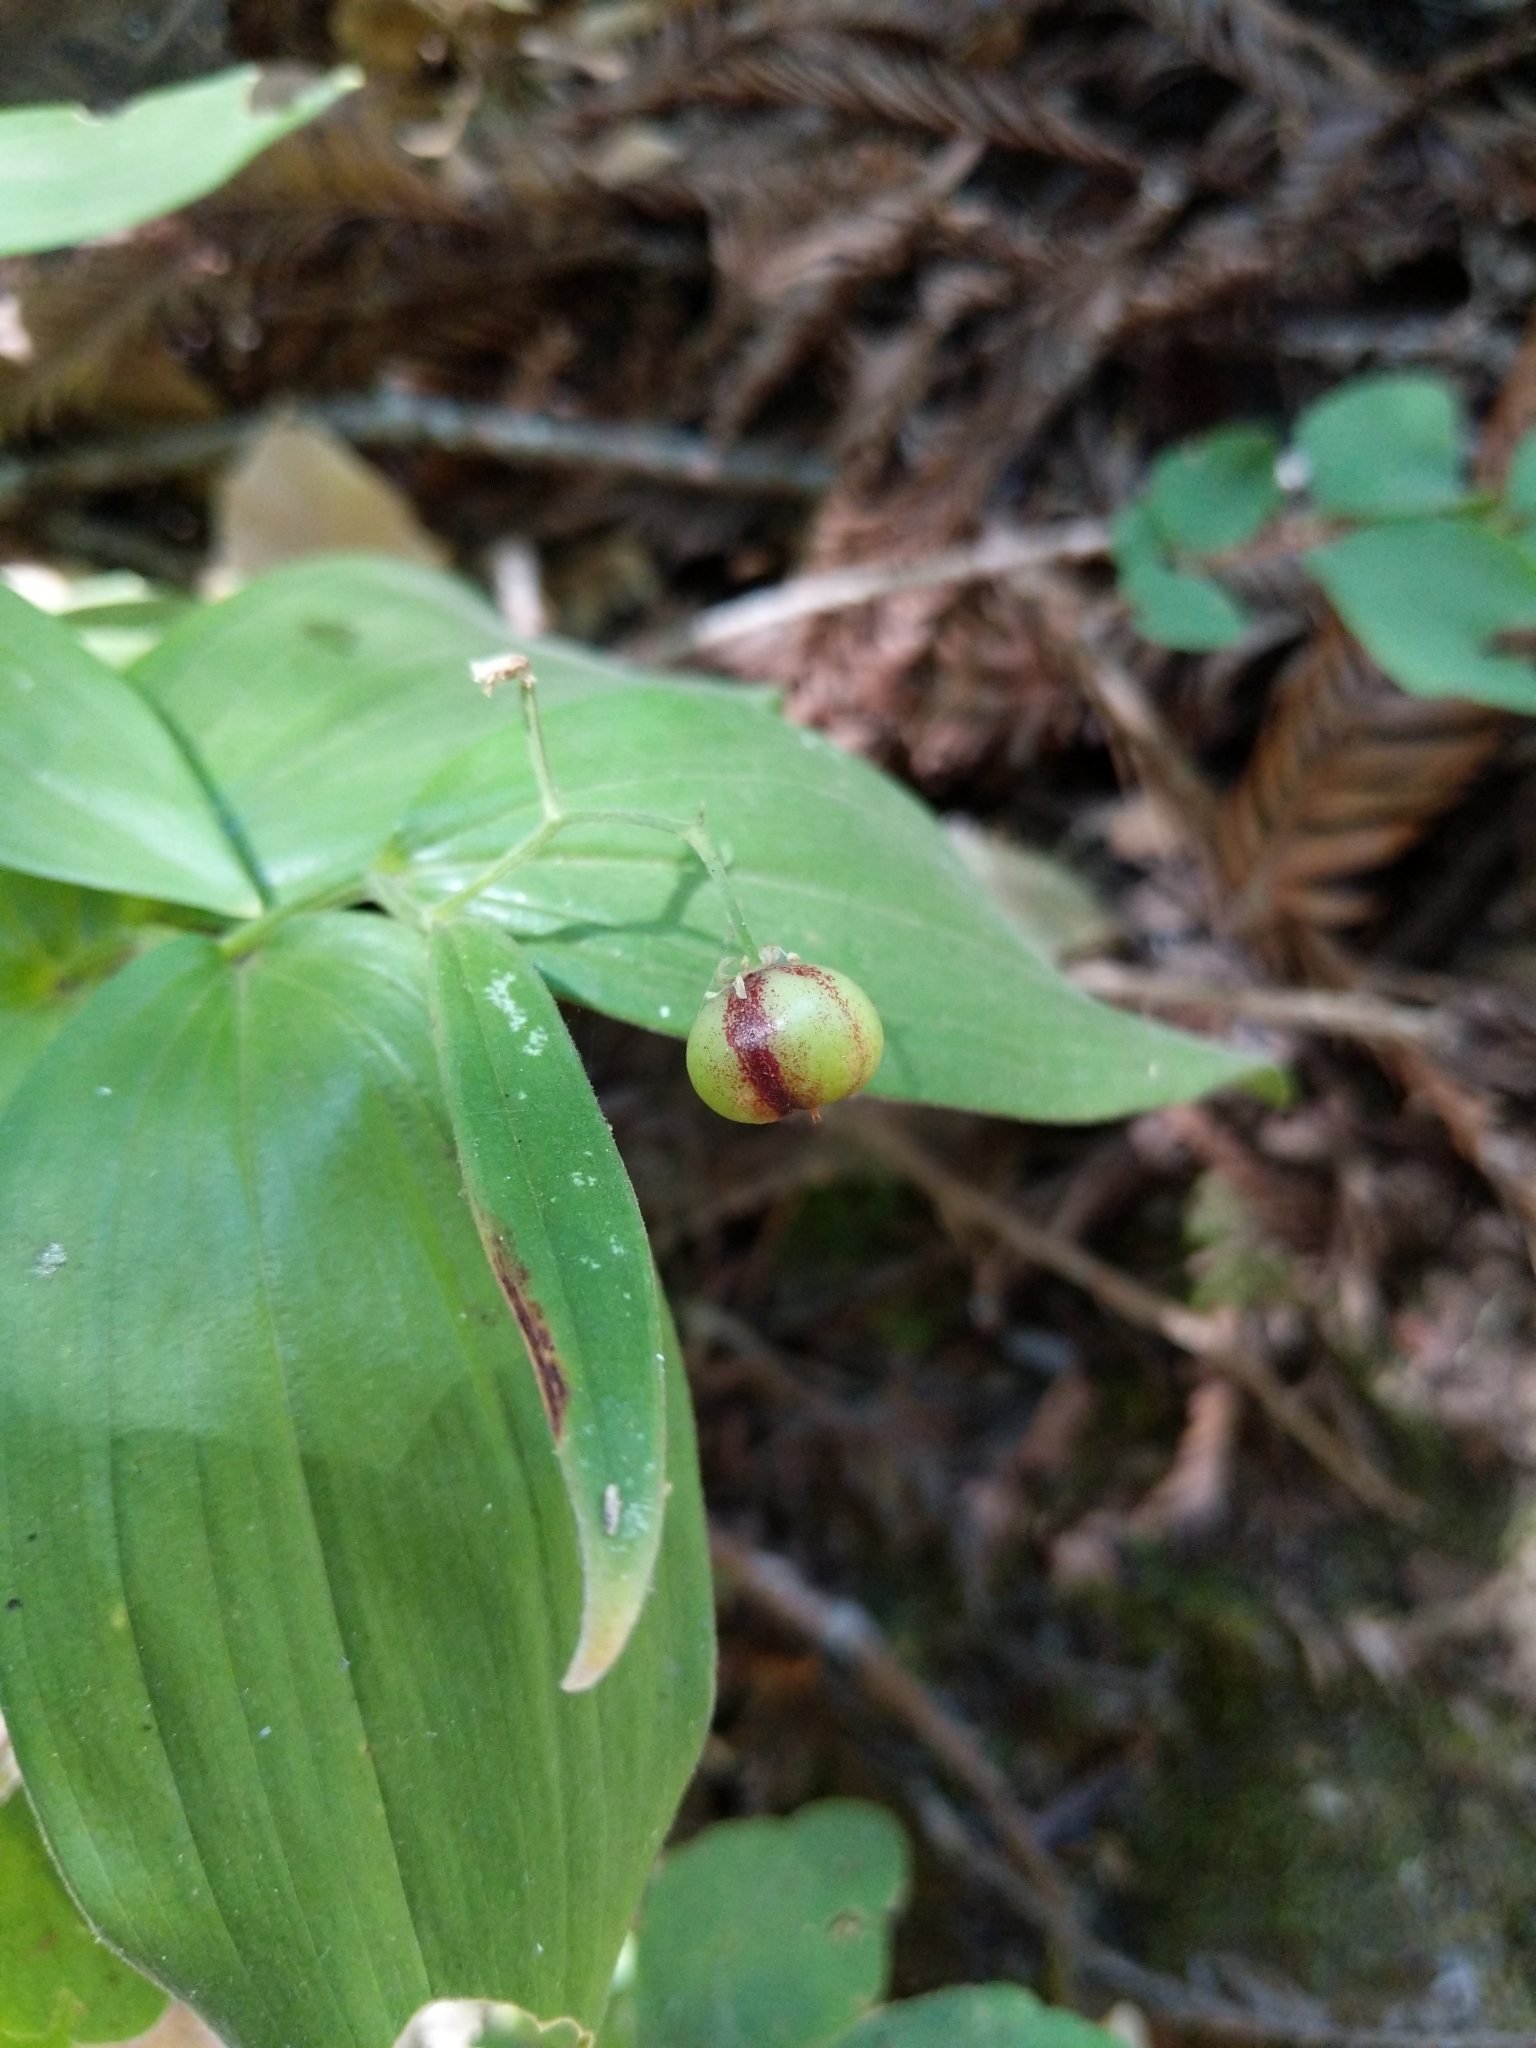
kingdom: Plantae
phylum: Tracheophyta
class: Liliopsida
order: Asparagales
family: Asparagaceae
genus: Maianthemum
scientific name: Maianthemum stellatum
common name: Little false solomon's seal
